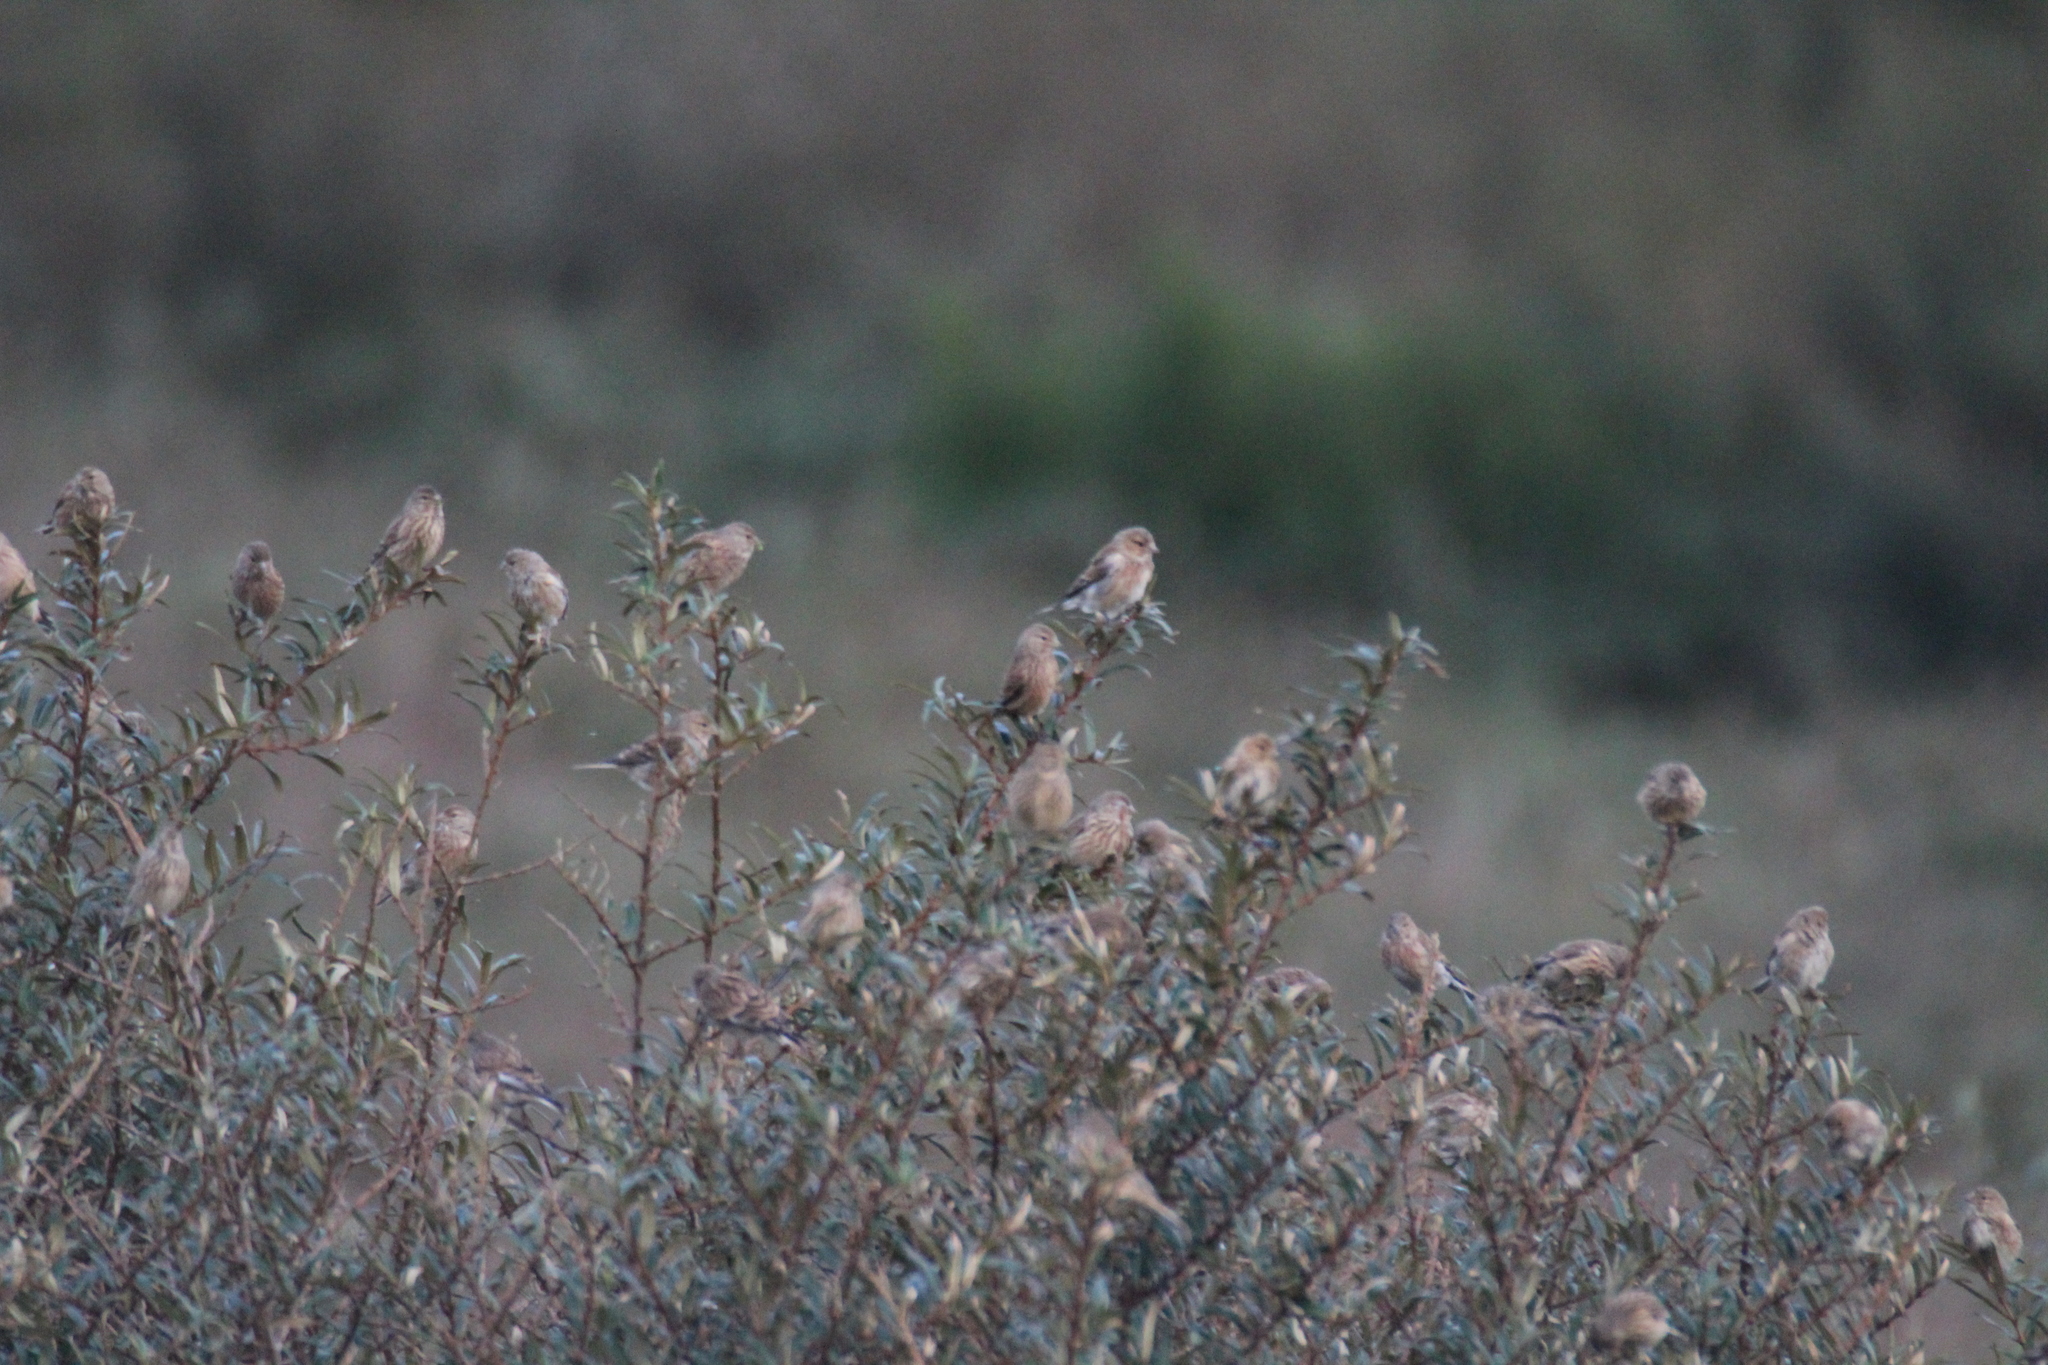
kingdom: Animalia
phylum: Chordata
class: Aves
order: Passeriformes
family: Fringillidae
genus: Linaria
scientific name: Linaria cannabina
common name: Common linnet
